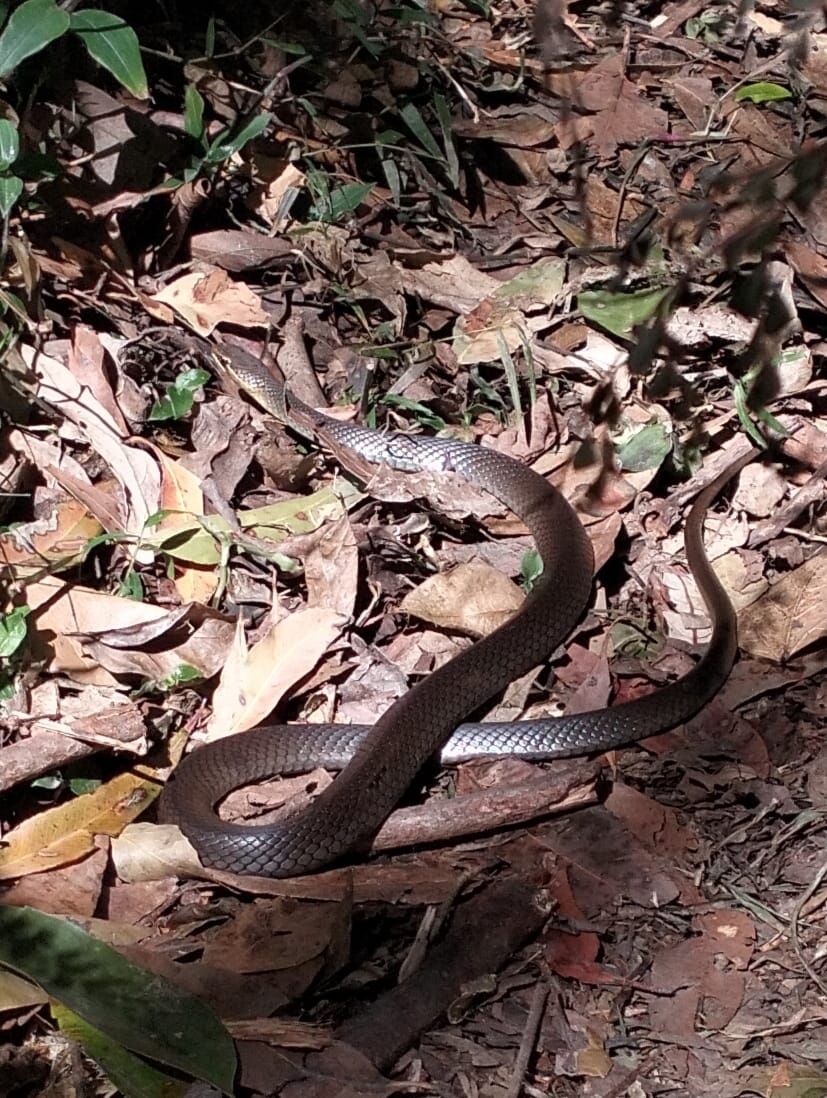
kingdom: Animalia
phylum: Chordata
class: Squamata
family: Elapidae
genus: Hemiaspis
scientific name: Hemiaspis signata
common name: Black-bellied swamp snake
